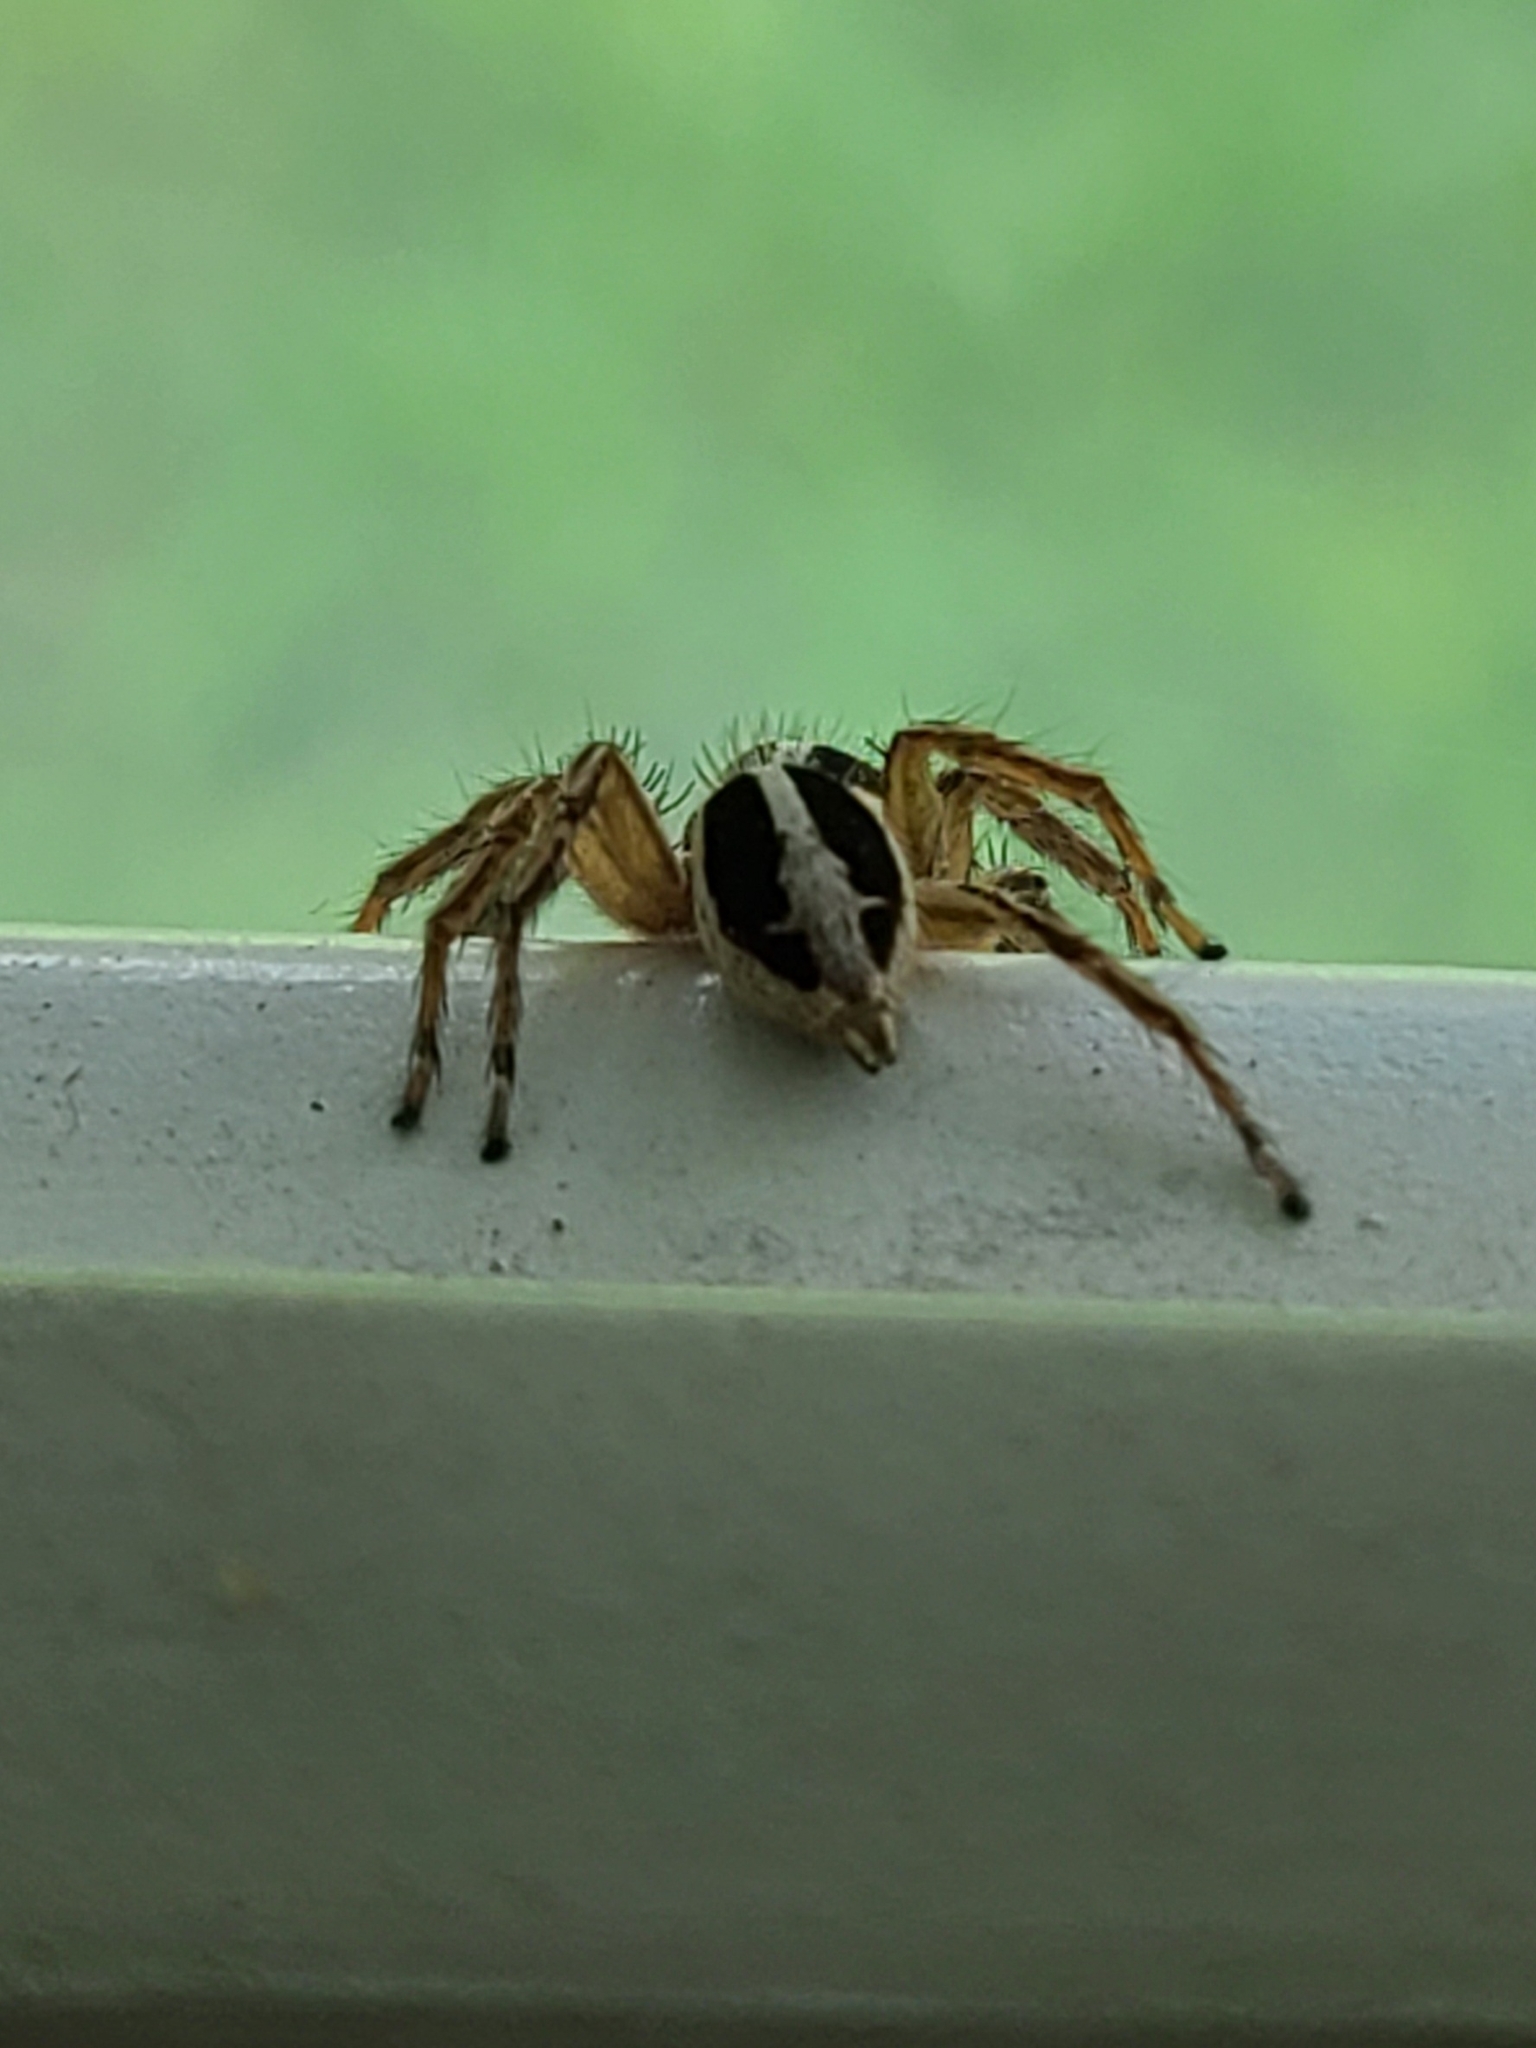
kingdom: Animalia
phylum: Arthropoda
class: Arachnida
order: Araneae
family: Salticidae
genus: Plexippus
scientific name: Plexippus paykulli
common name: Pantropical jumper
